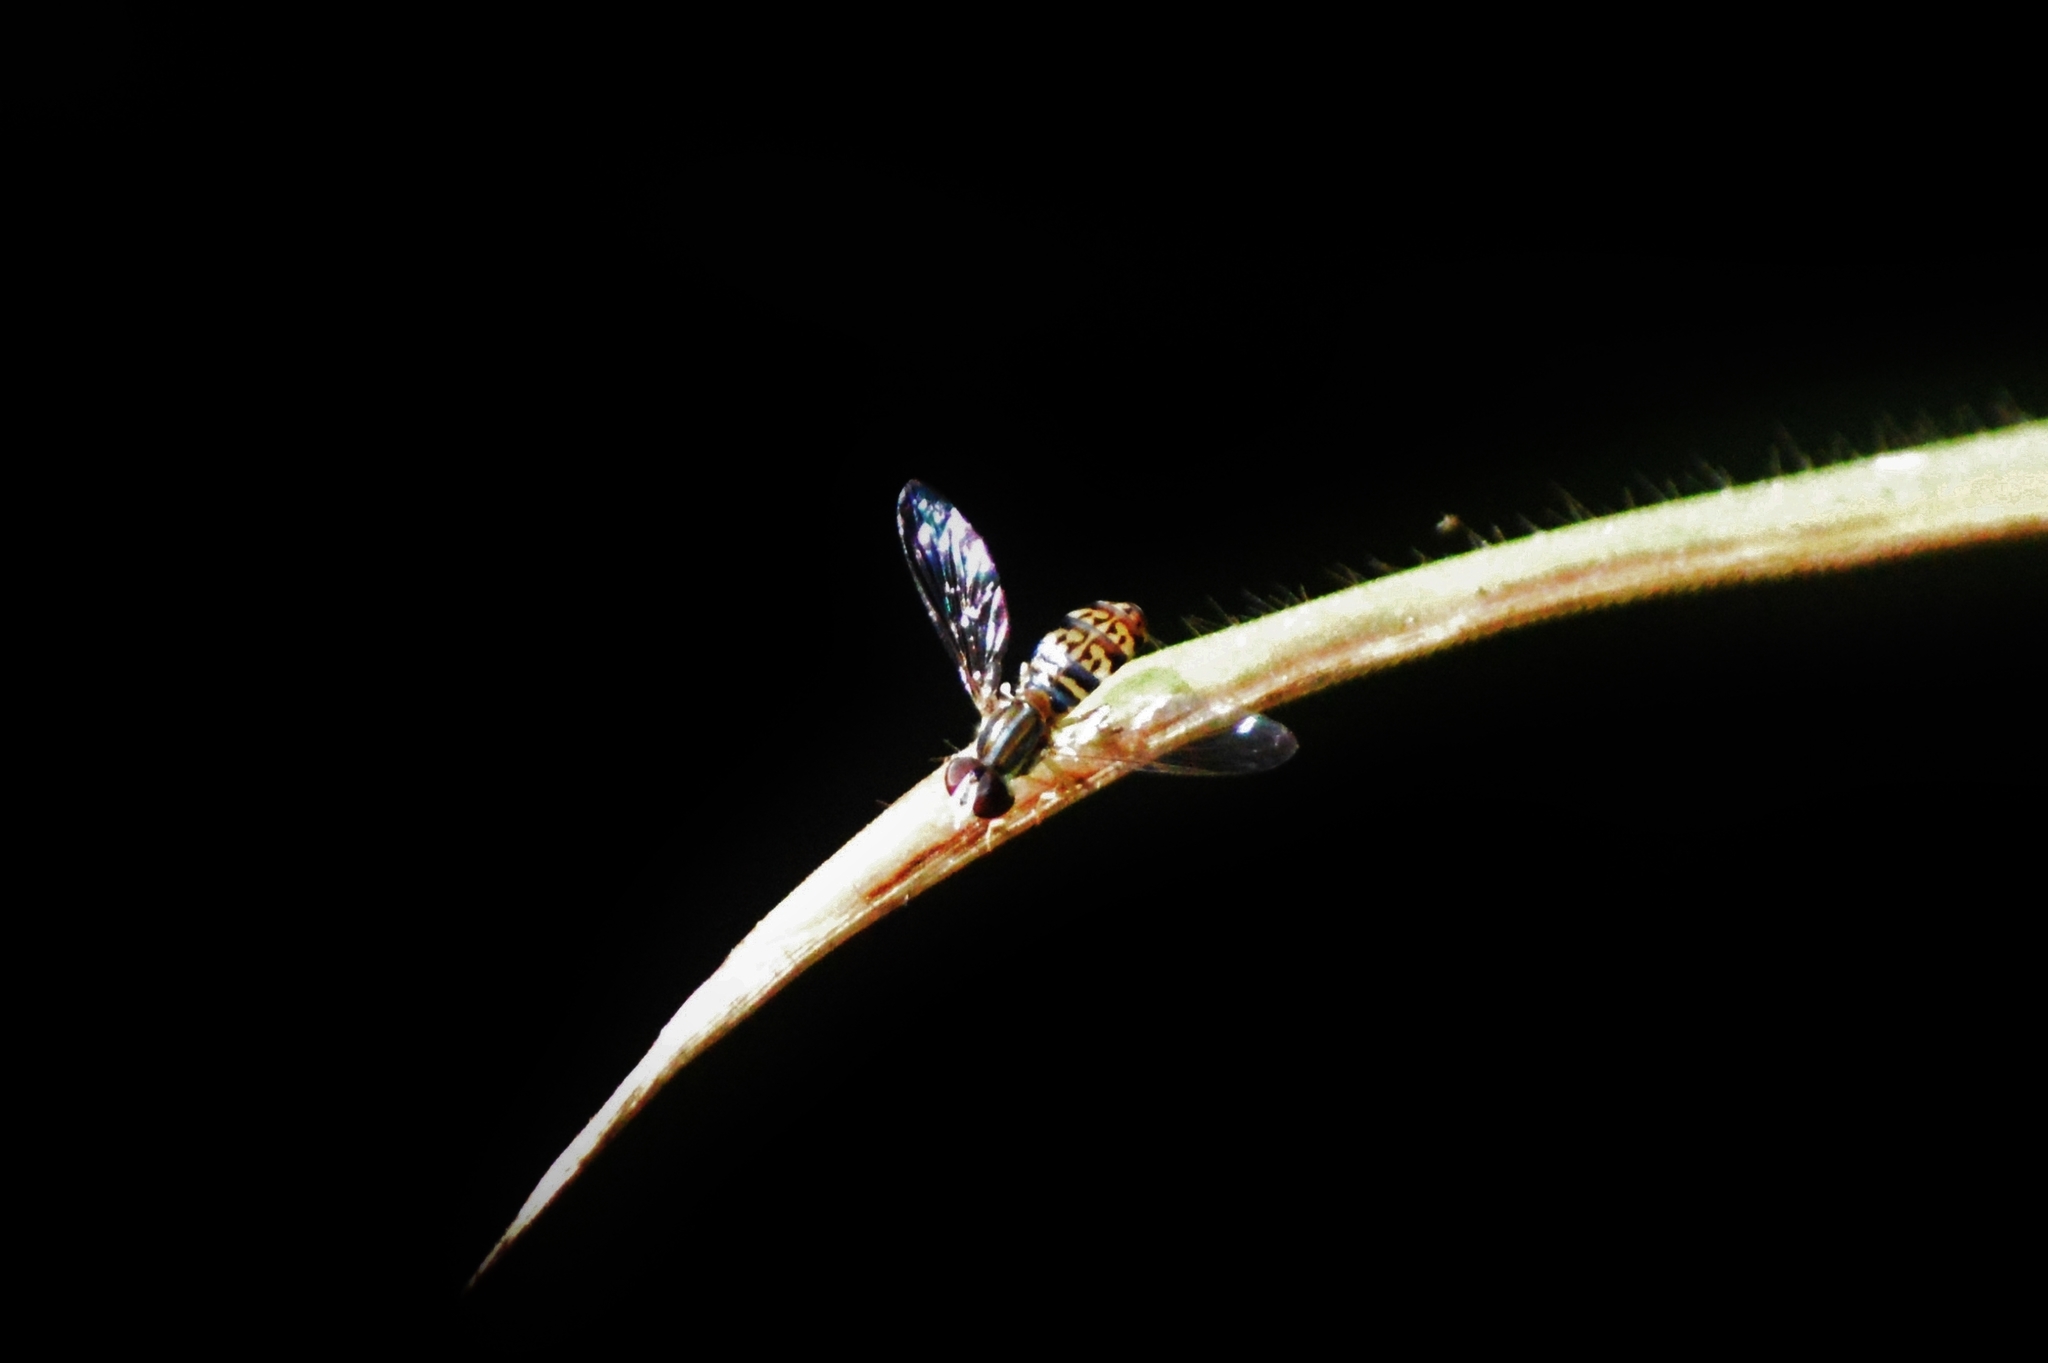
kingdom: Animalia
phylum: Arthropoda
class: Insecta
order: Diptera
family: Syrphidae
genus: Toxomerus
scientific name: Toxomerus
